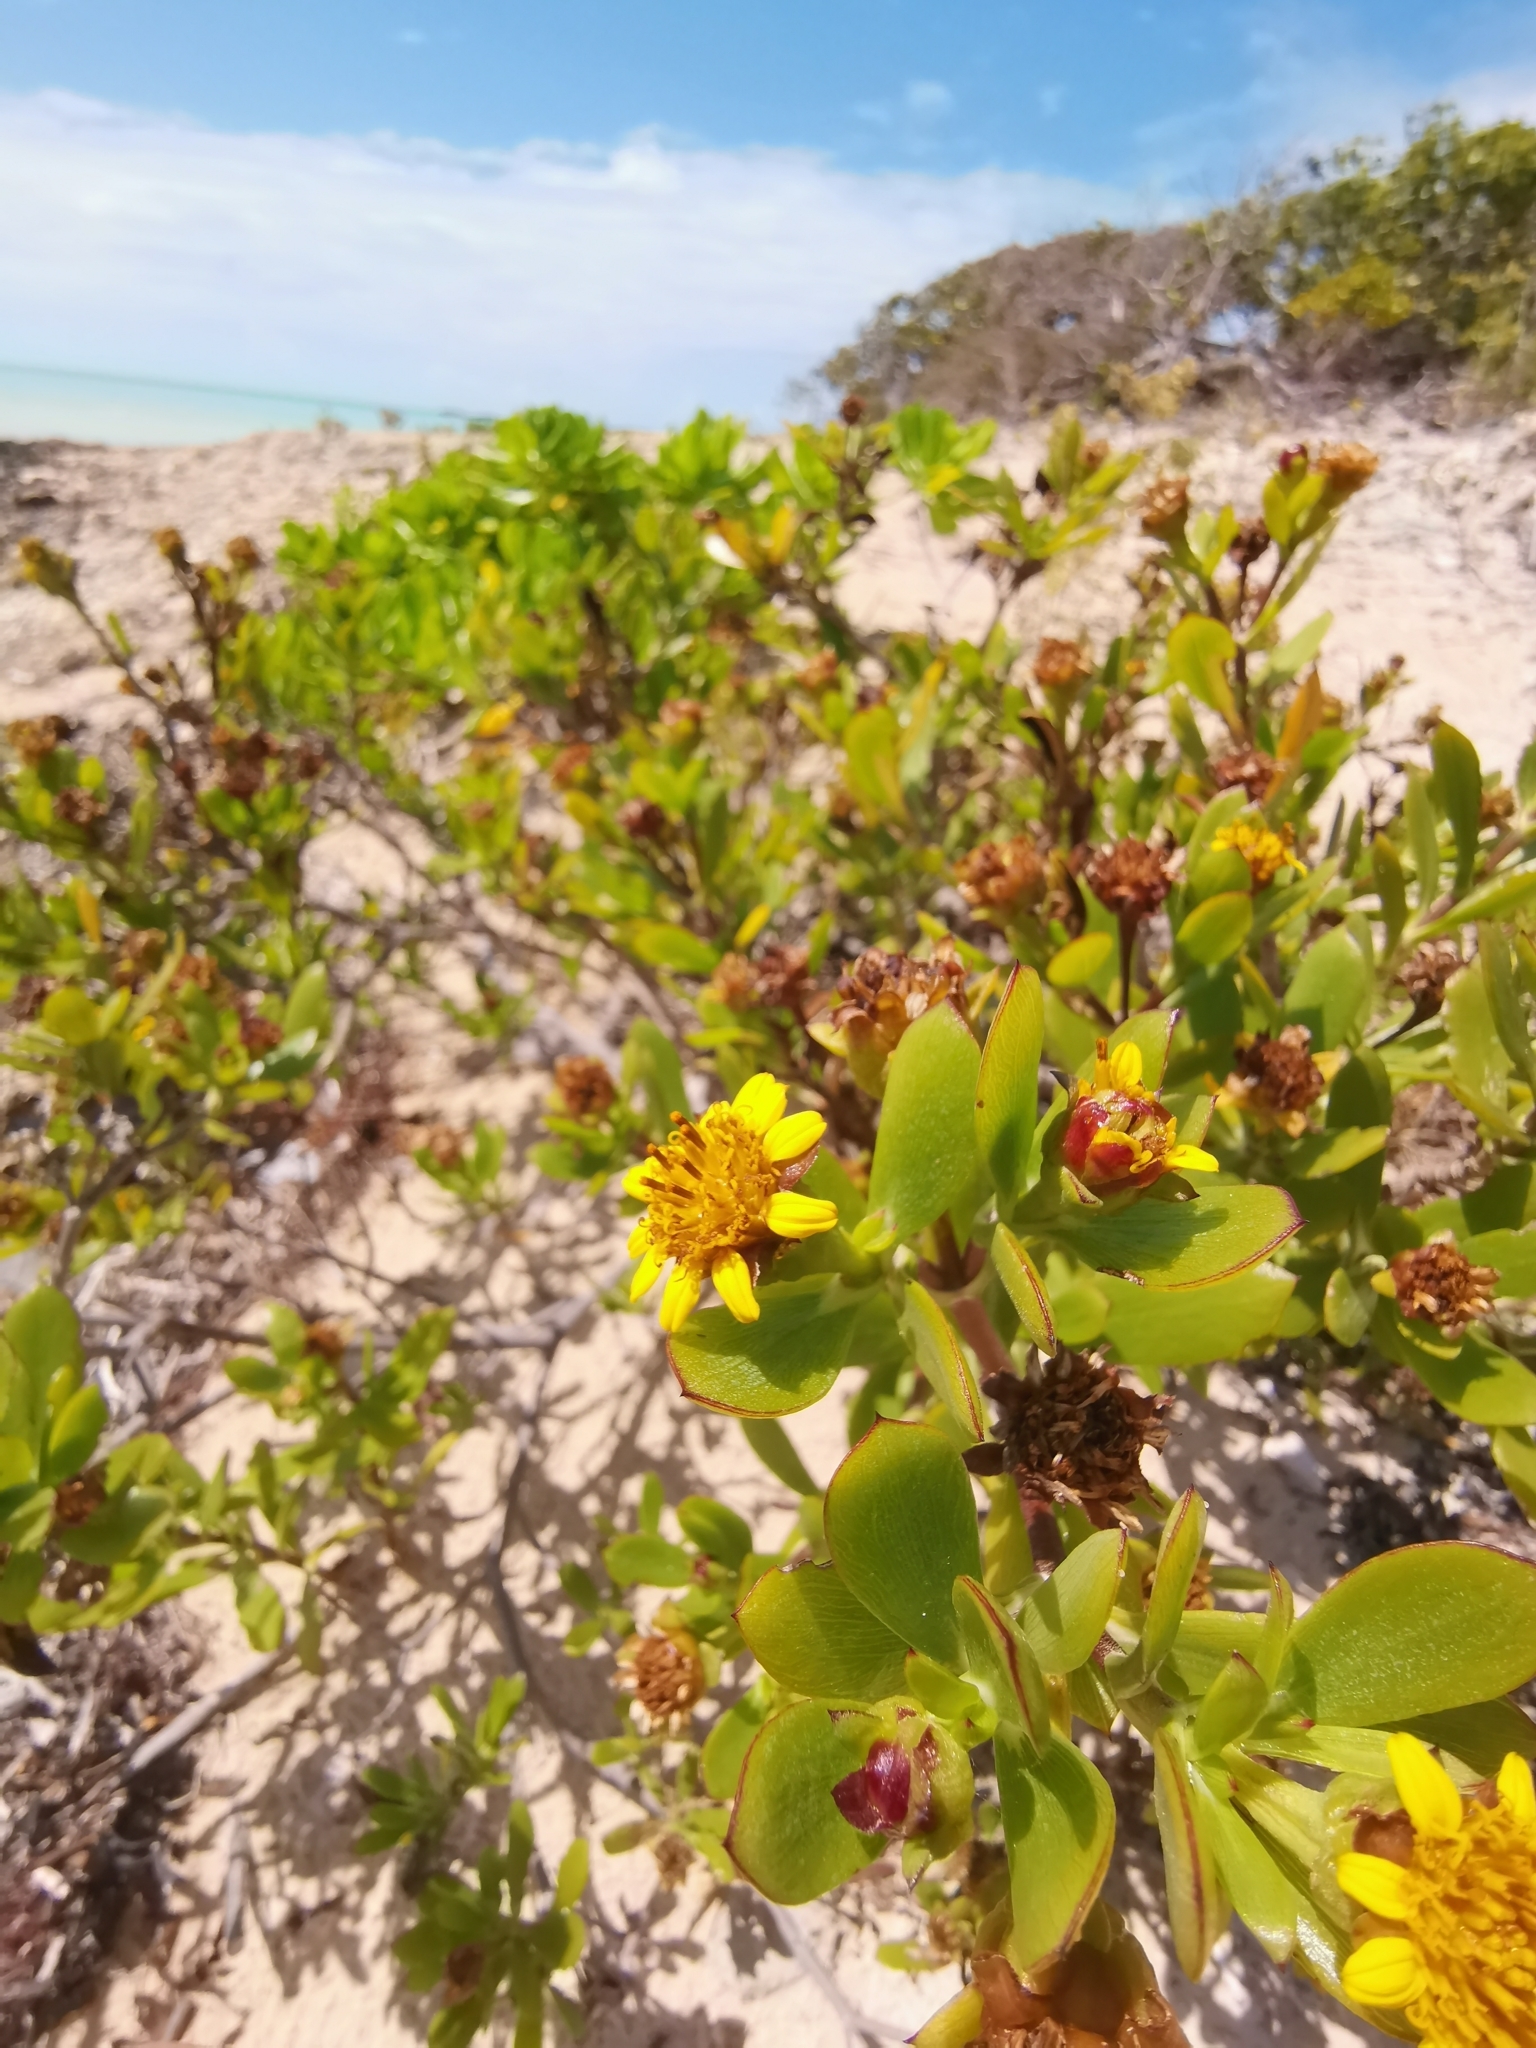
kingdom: Plantae
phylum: Tracheophyta
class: Magnoliopsida
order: Asterales
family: Asteraceae
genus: Borrichia
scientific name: Borrichia arborescens
